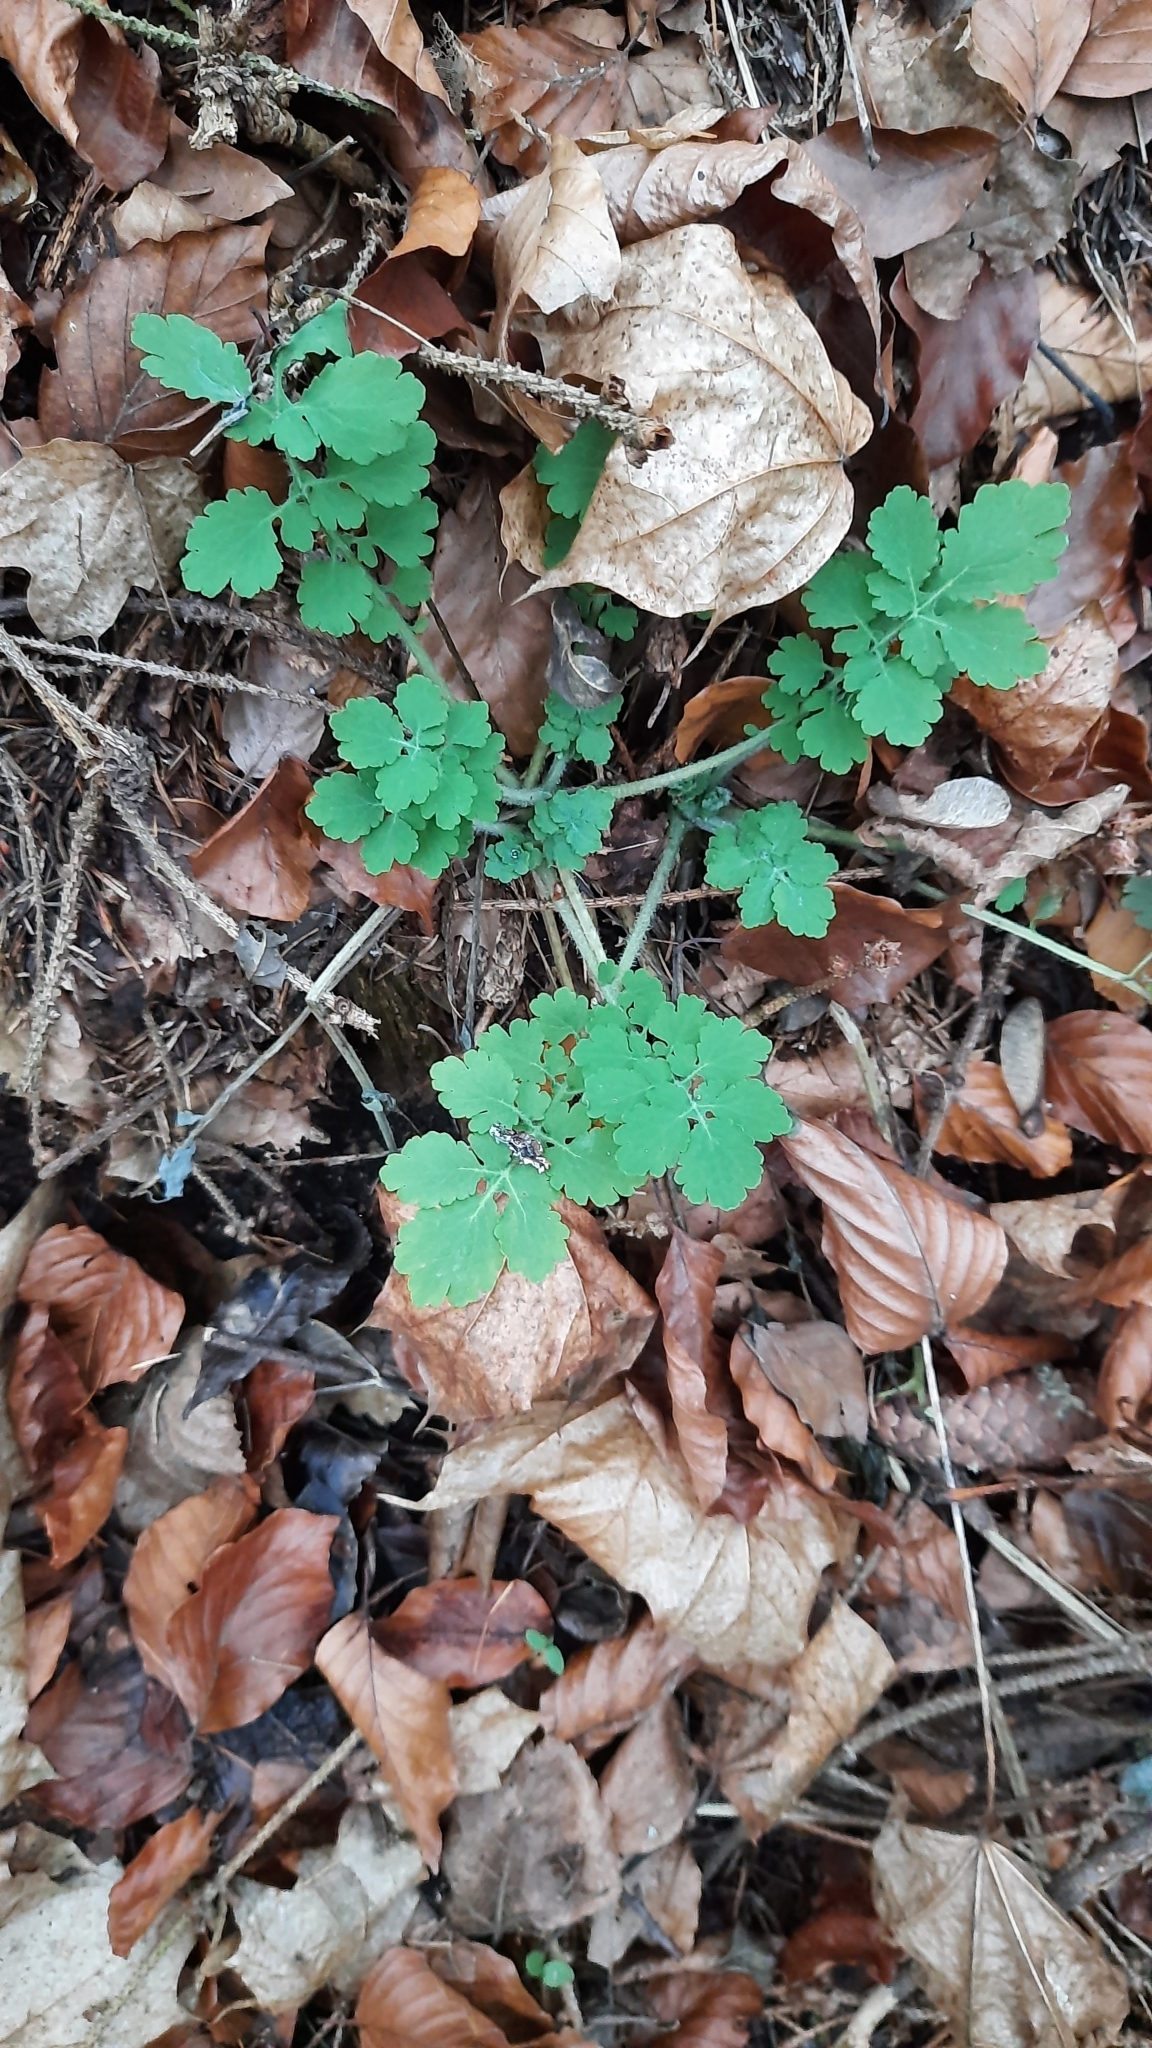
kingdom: Plantae
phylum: Tracheophyta
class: Magnoliopsida
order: Ranunculales
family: Papaveraceae
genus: Chelidonium
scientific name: Chelidonium majus
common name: Greater celandine
